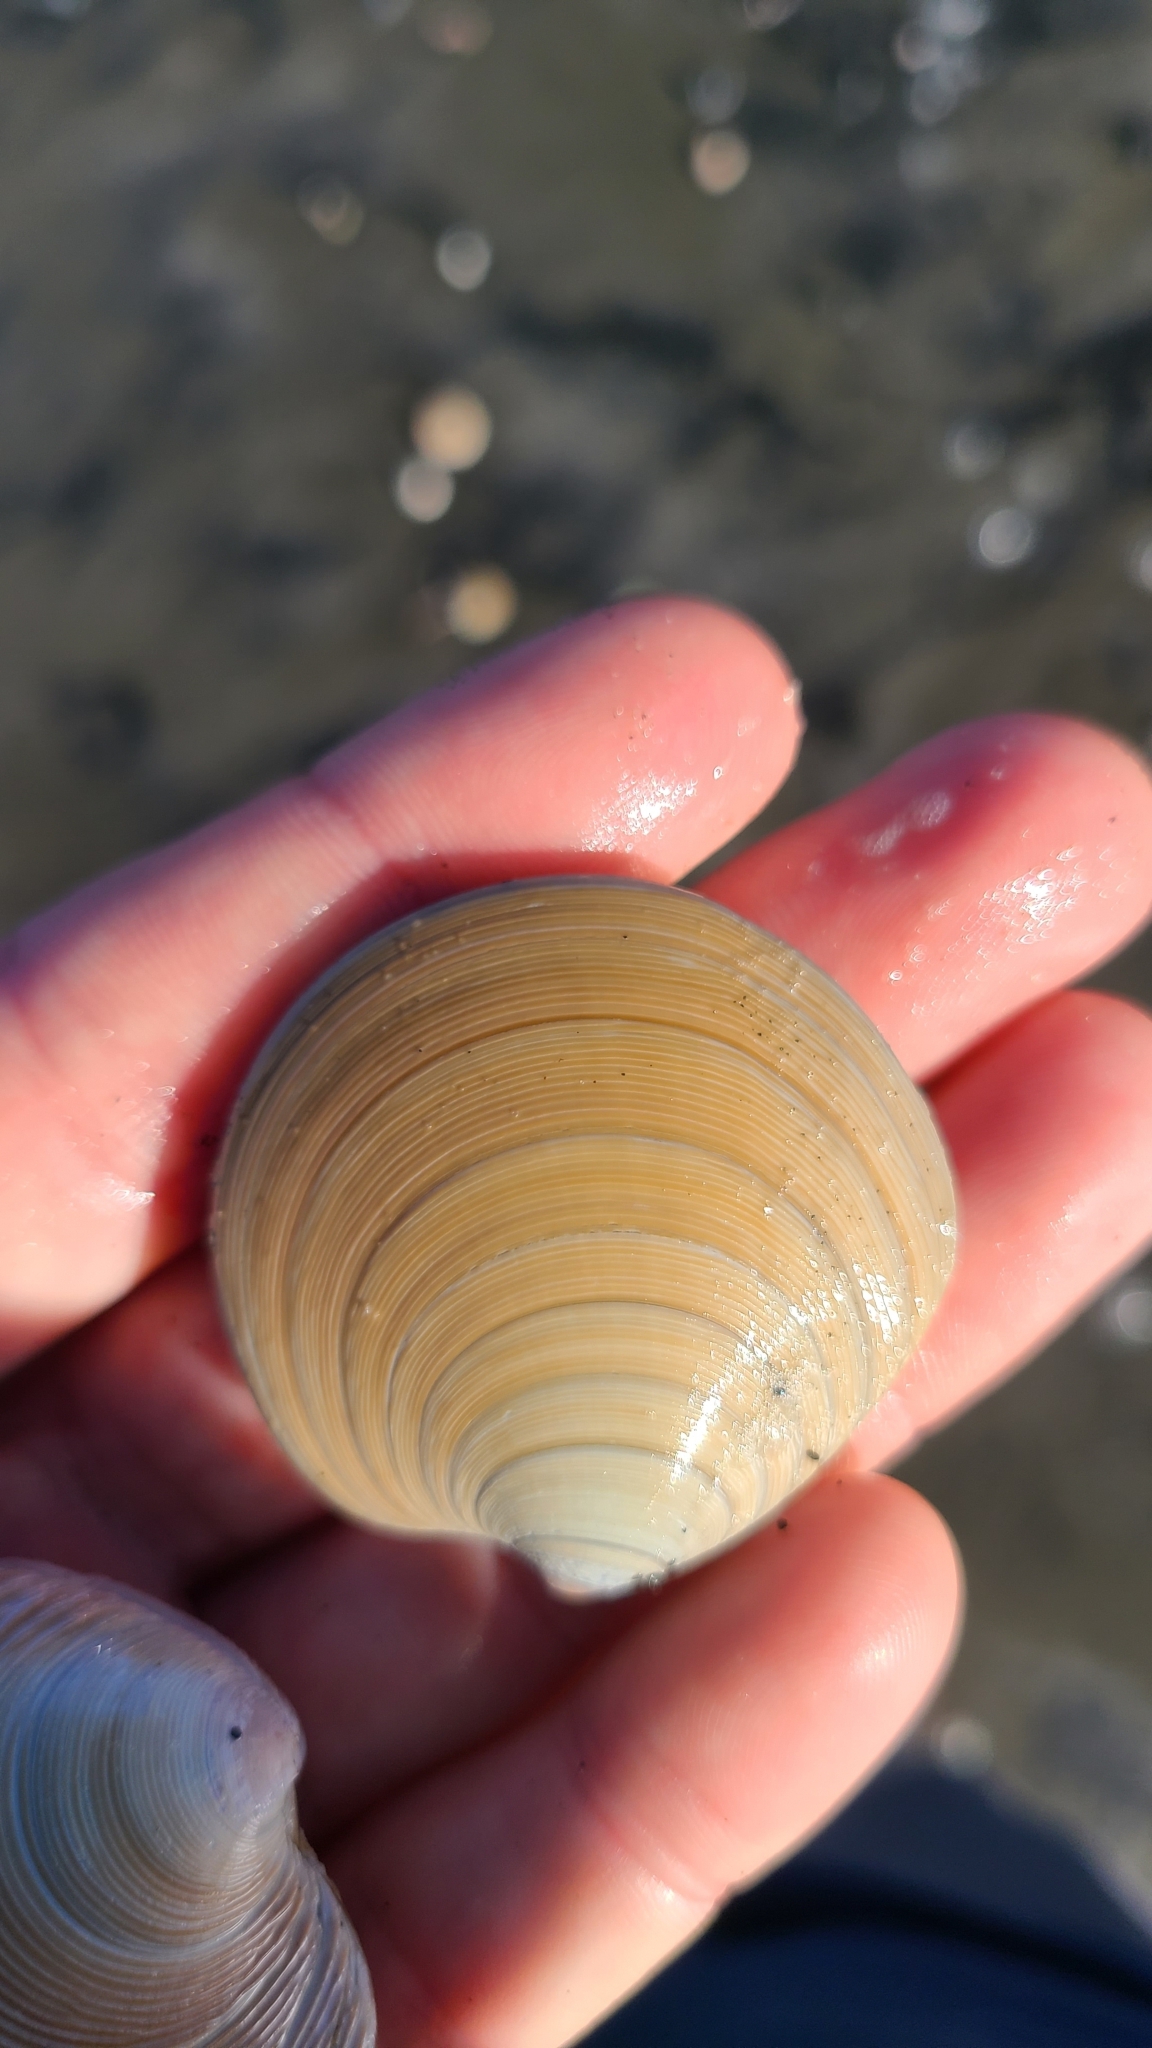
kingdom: Animalia
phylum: Mollusca
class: Bivalvia
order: Venerida
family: Veneridae
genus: Dosinia
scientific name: Dosinia subrosea
